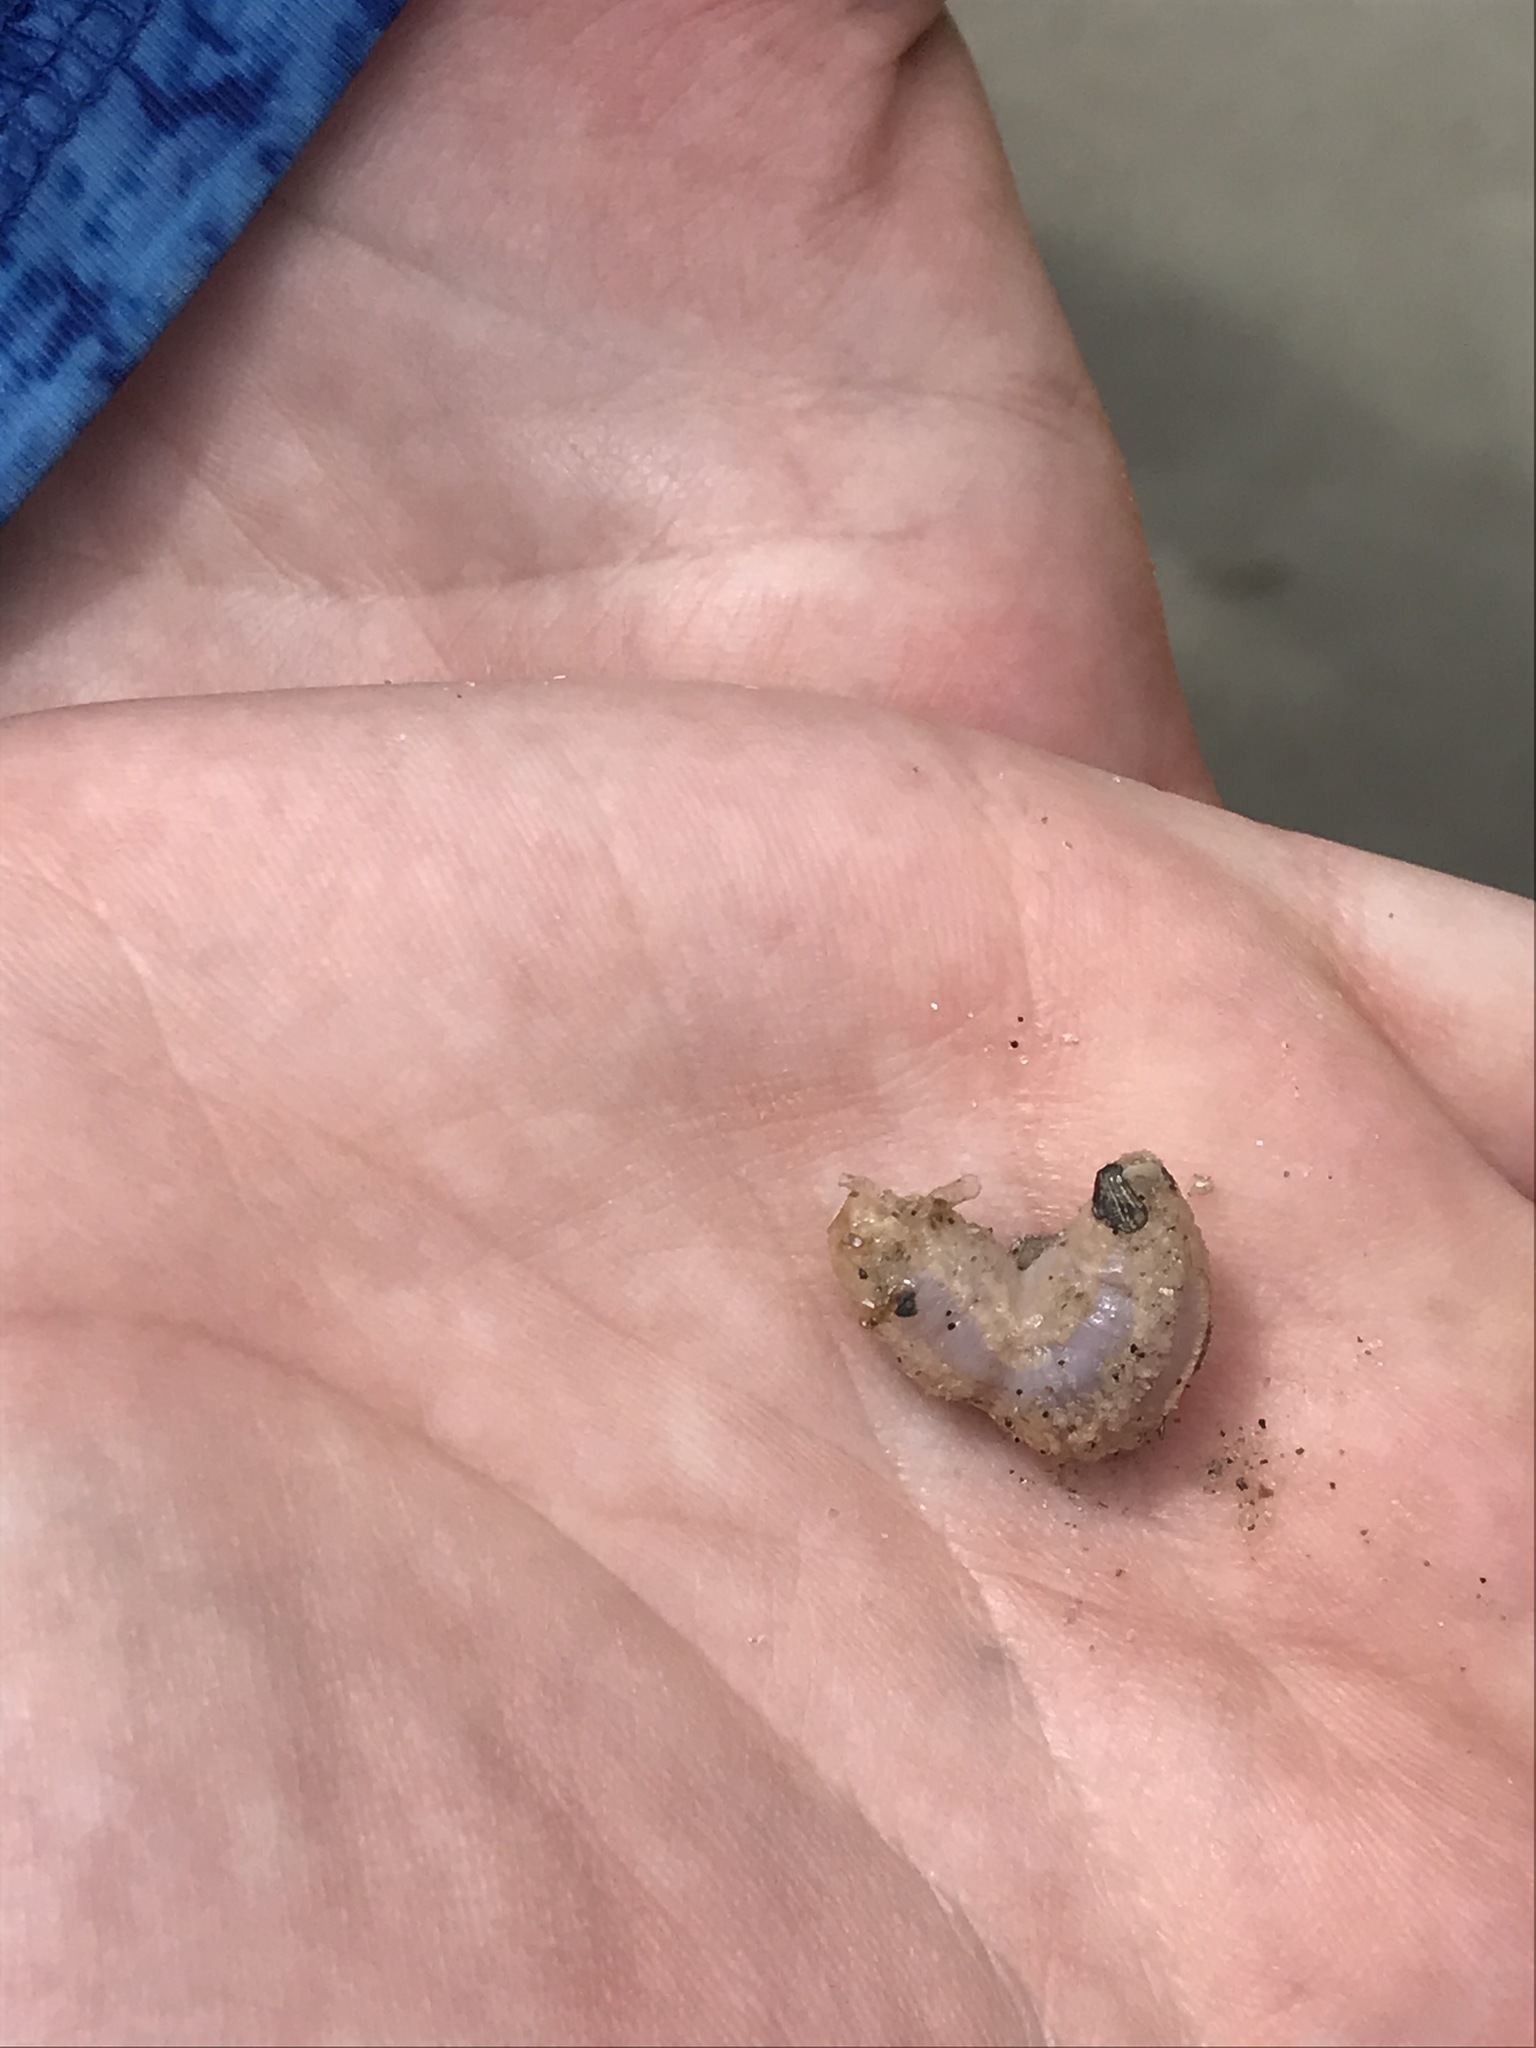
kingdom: Animalia
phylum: Echinodermata
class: Holothuroidea
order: Dendrochirotida
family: Phyllophoridae
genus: Pentamera
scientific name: Pentamera pulcherrima
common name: Splendid sea cucumber
